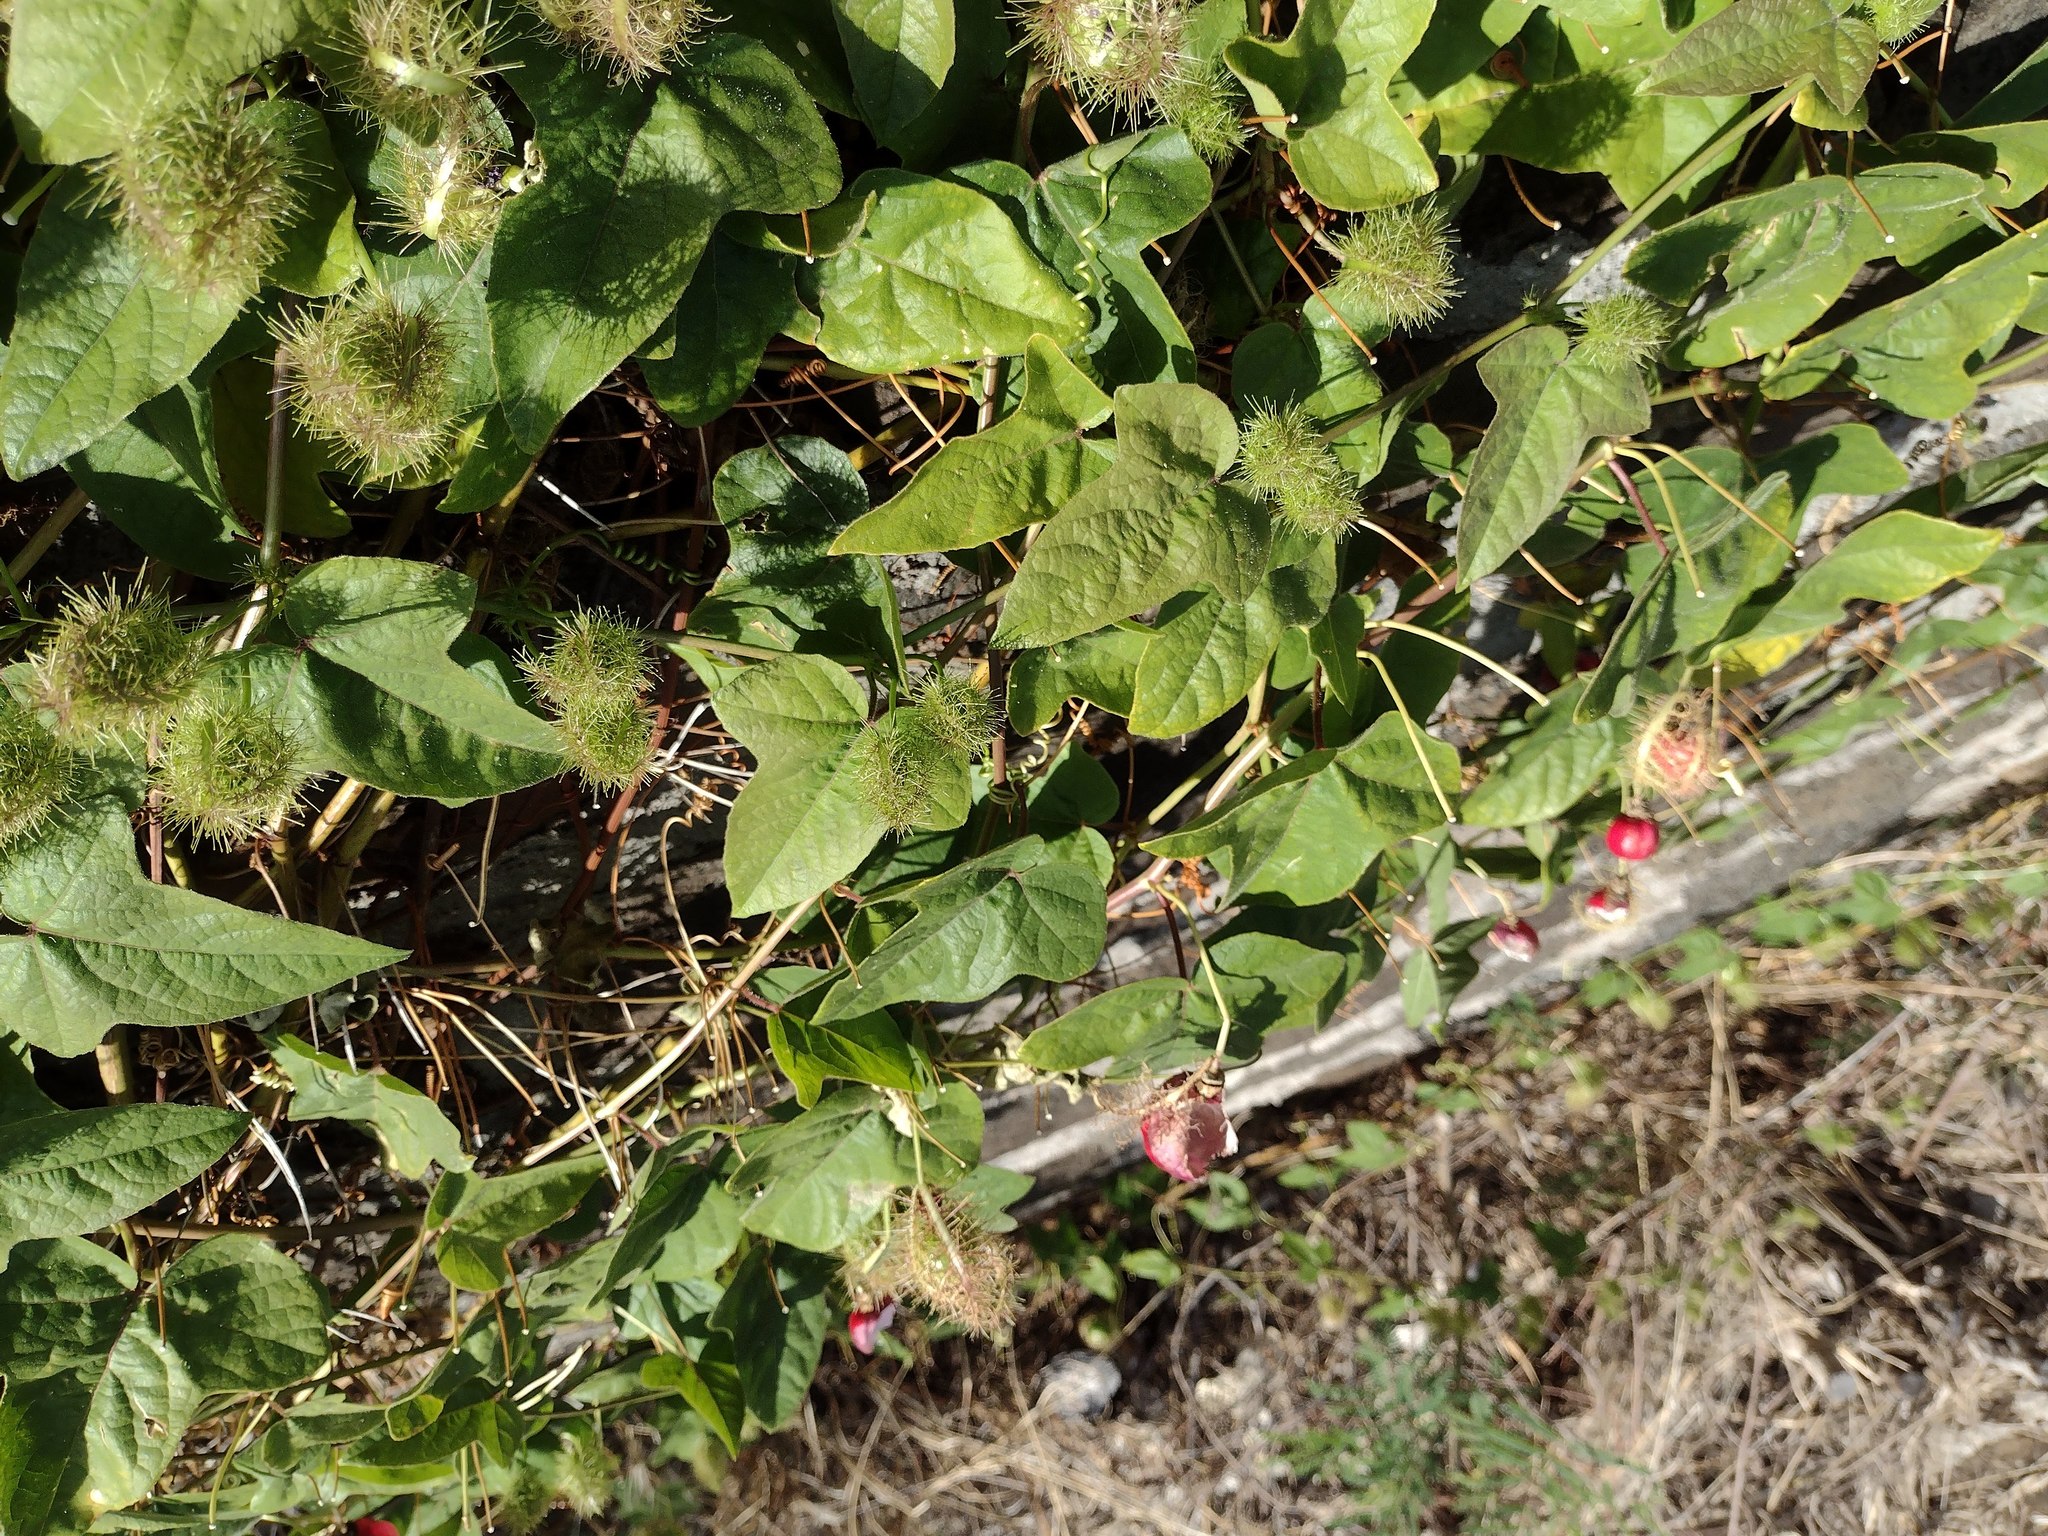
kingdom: Plantae
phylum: Tracheophyta
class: Magnoliopsida
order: Gentianales
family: Rubiaceae
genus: Saprosma
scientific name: Saprosma
